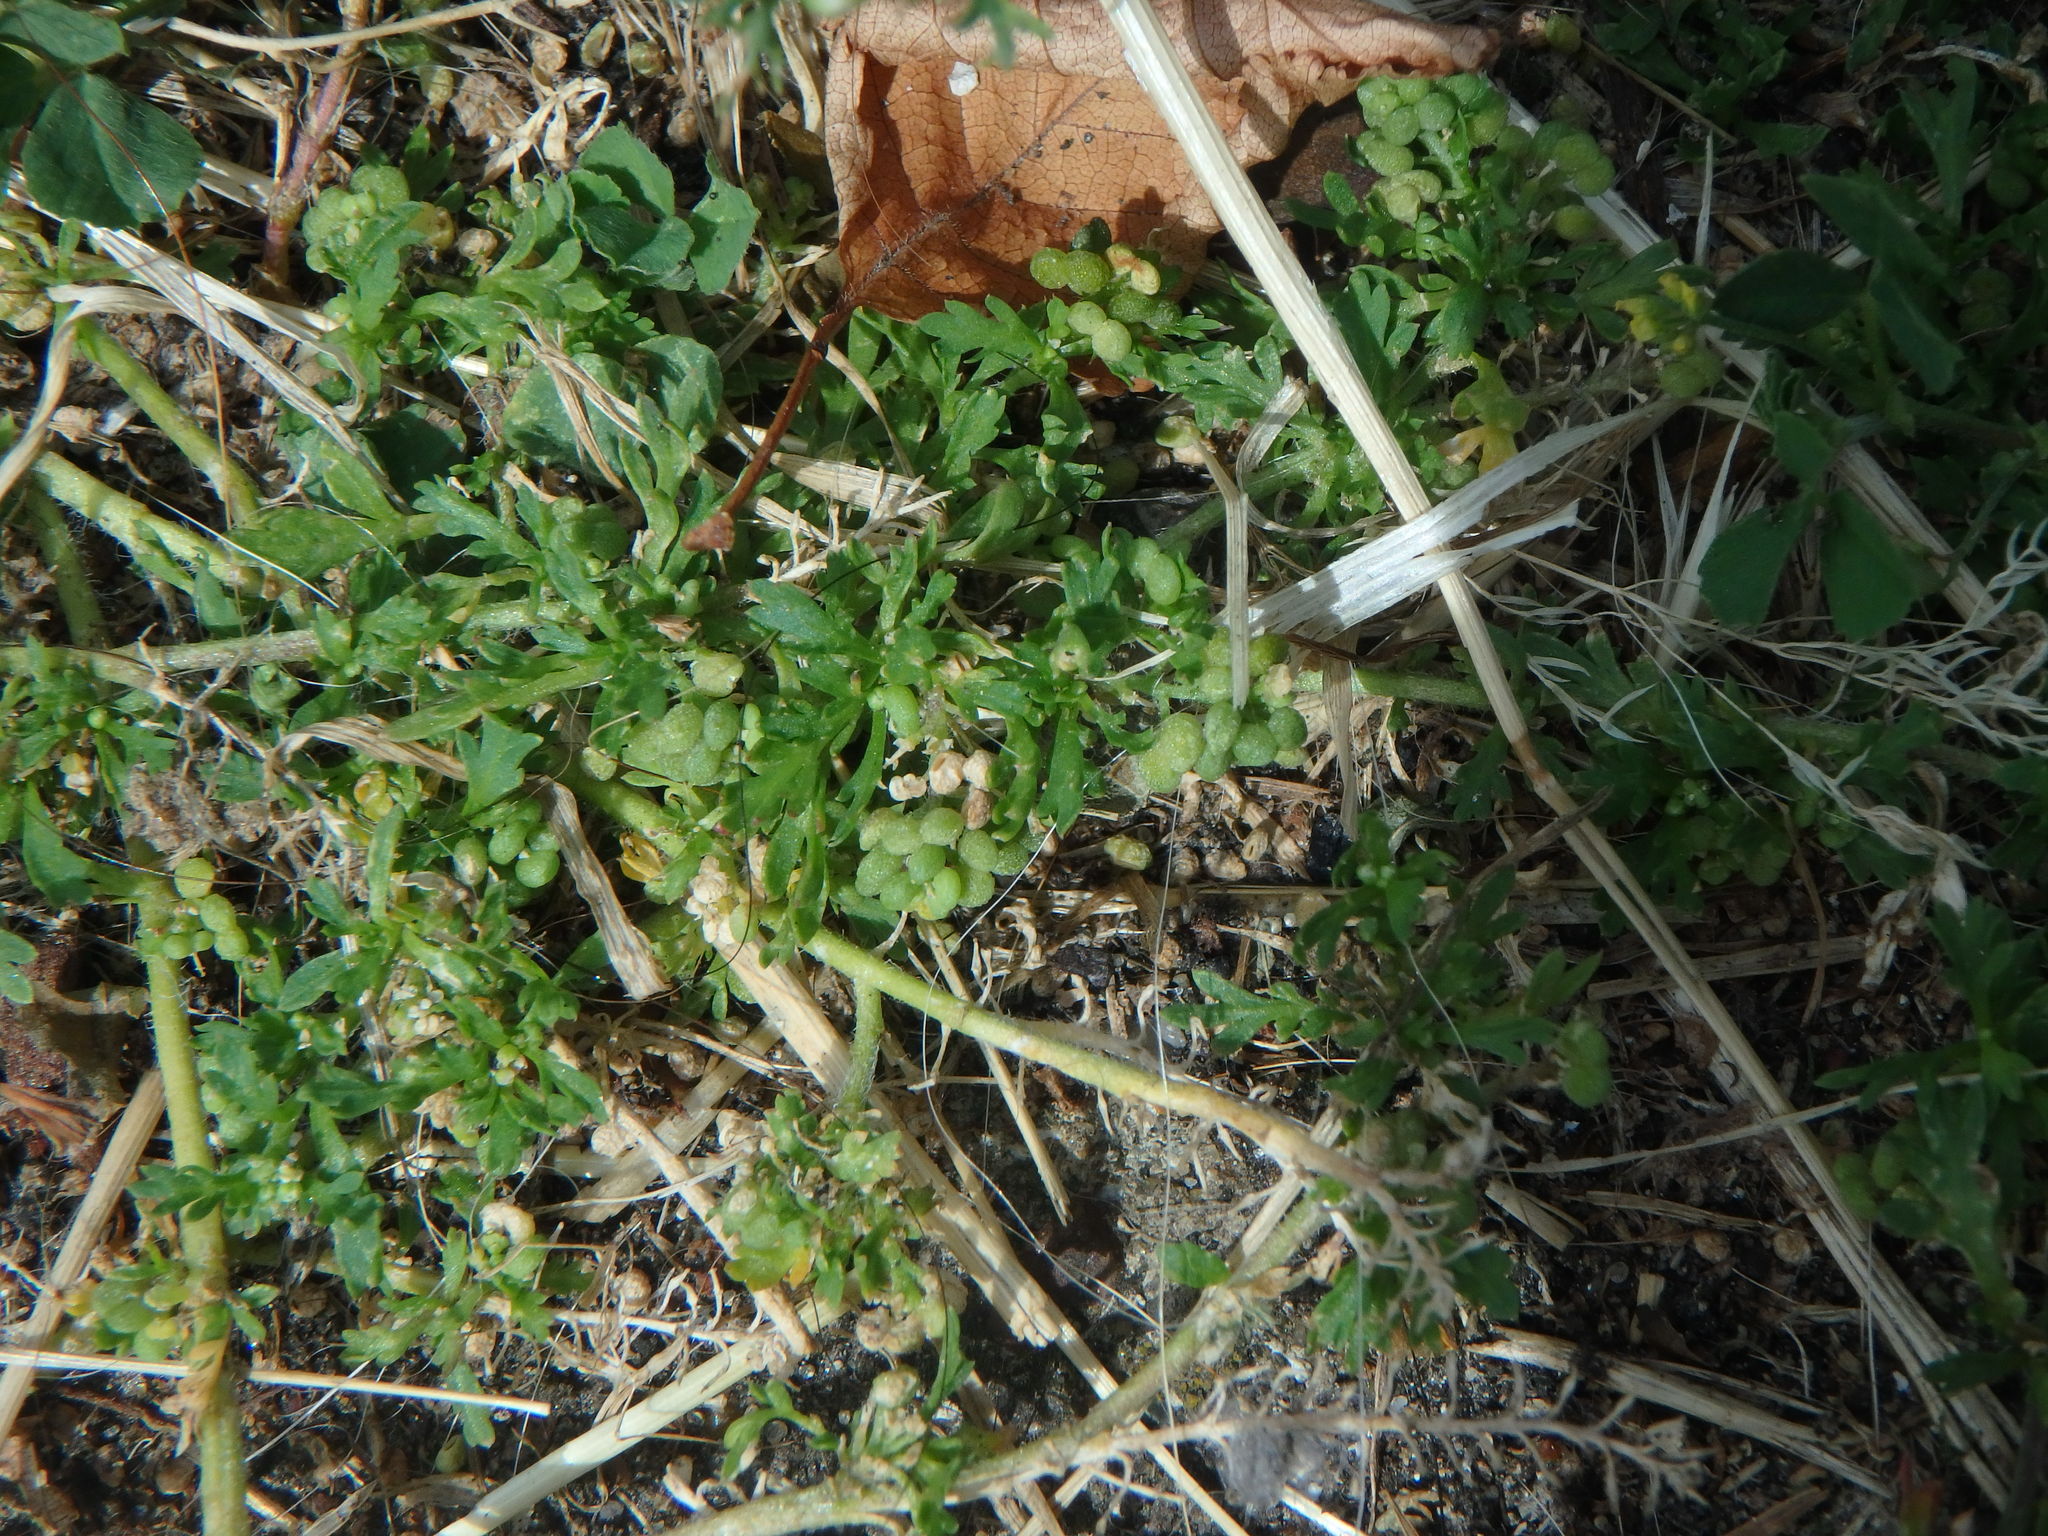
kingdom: Plantae
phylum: Tracheophyta
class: Magnoliopsida
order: Brassicales
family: Brassicaceae
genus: Lepidium
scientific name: Lepidium didymum
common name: Lesser swinecress
